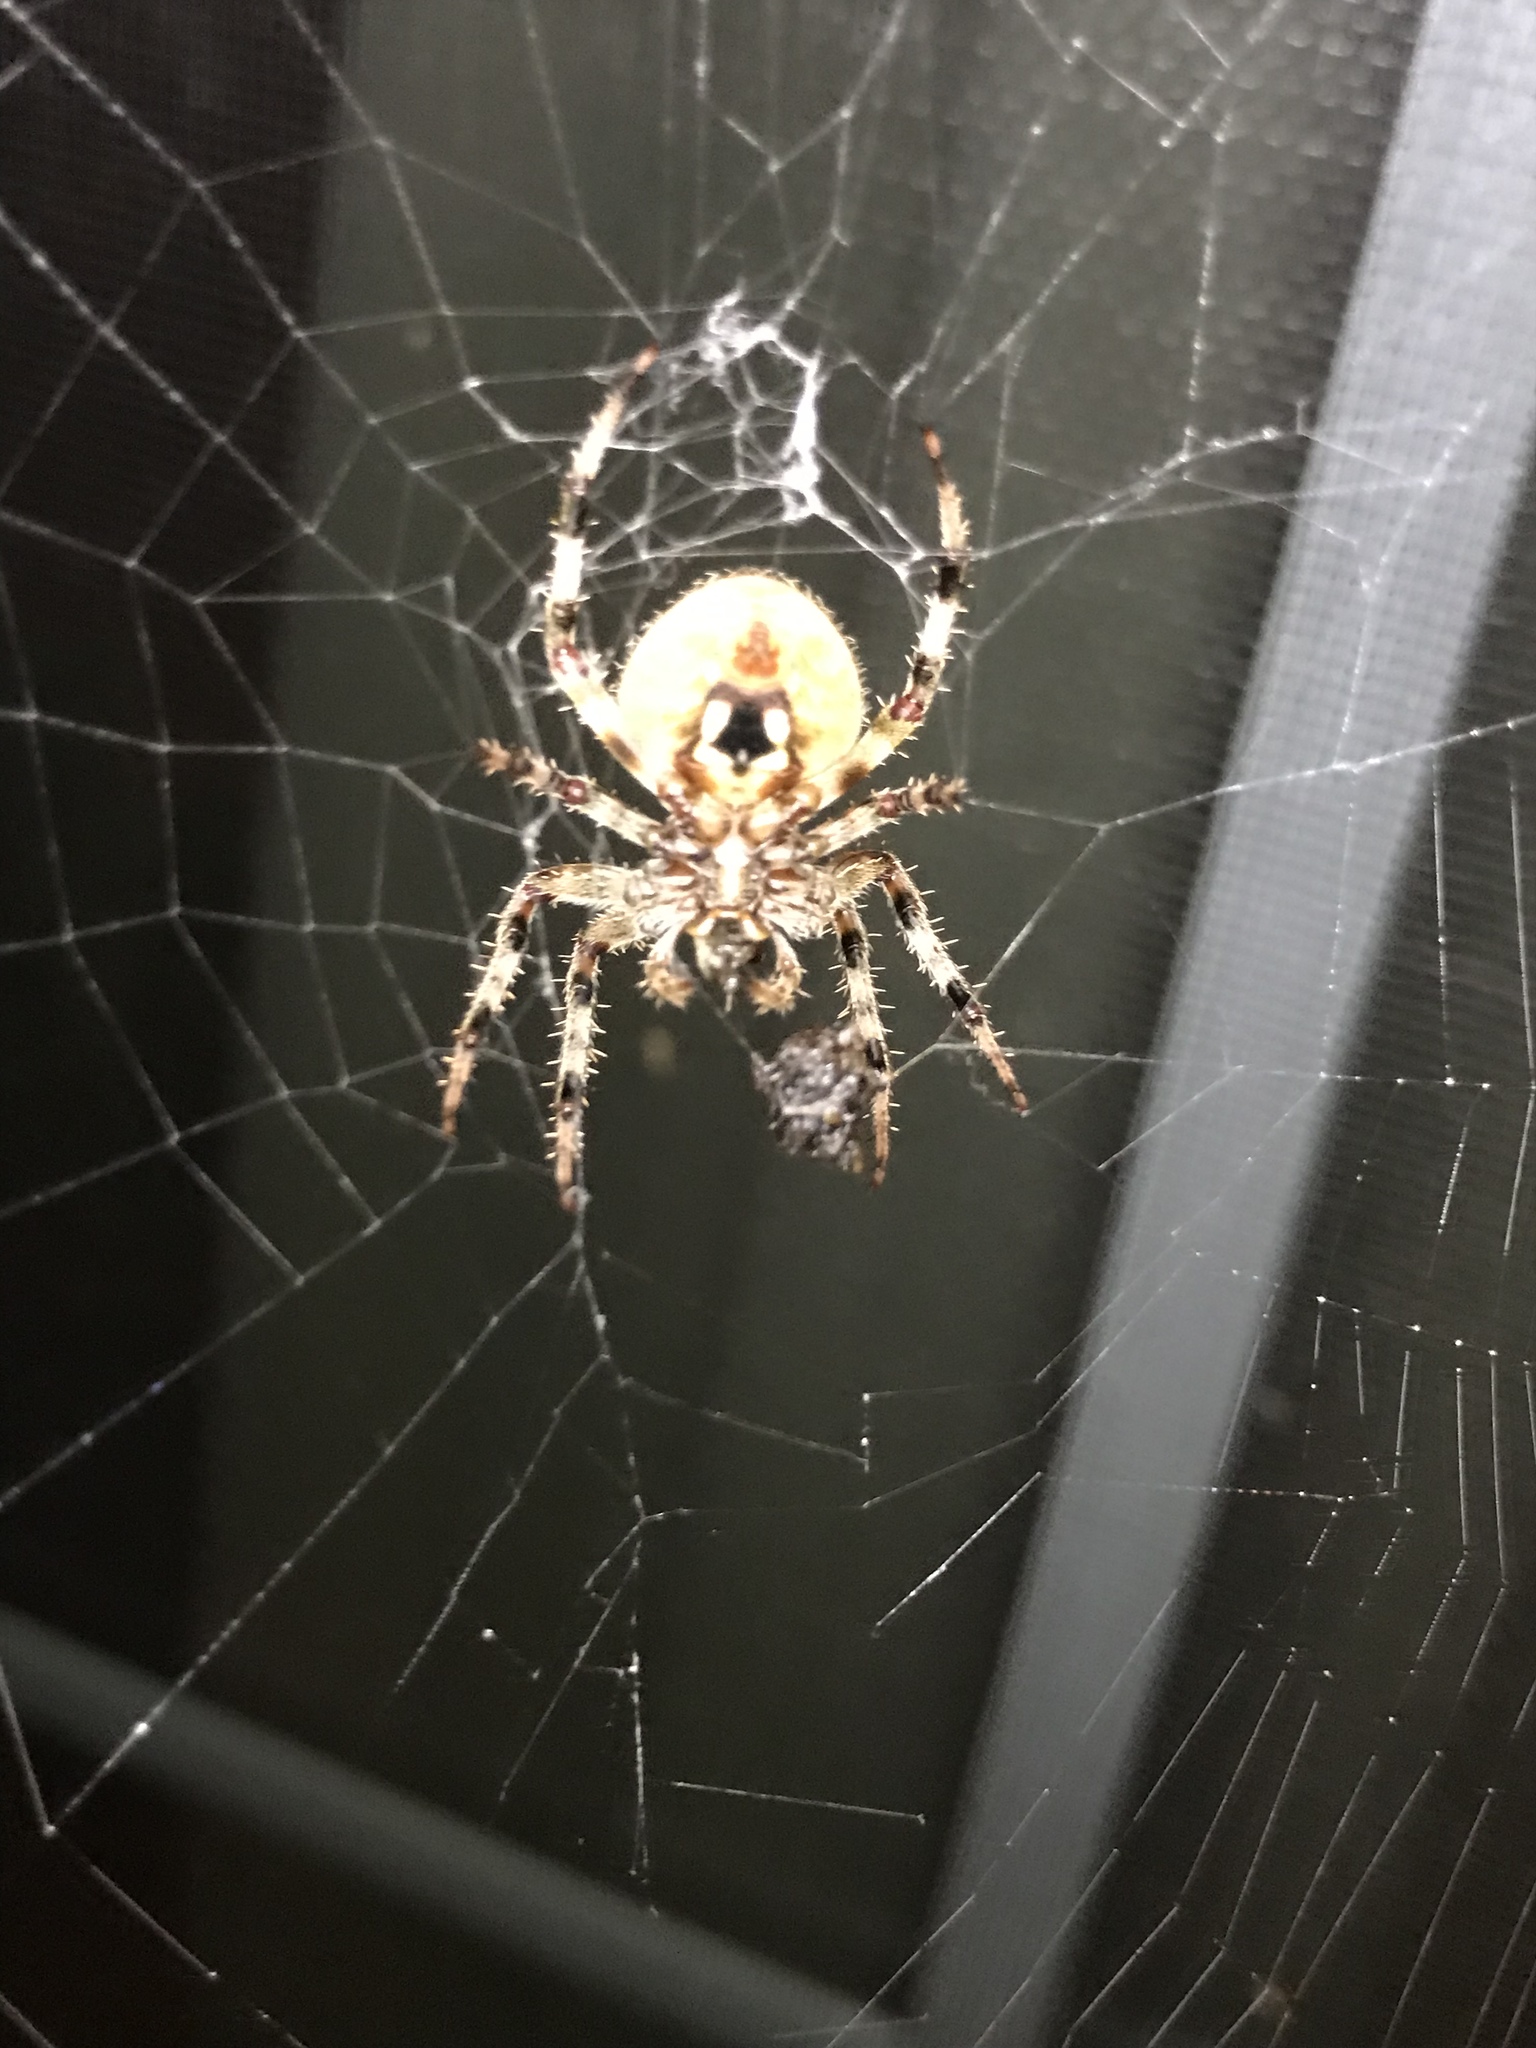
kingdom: Animalia
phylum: Arthropoda
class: Arachnida
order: Araneae
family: Araneidae
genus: Neoscona
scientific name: Neoscona crucifera
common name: Spotted orbweaver
